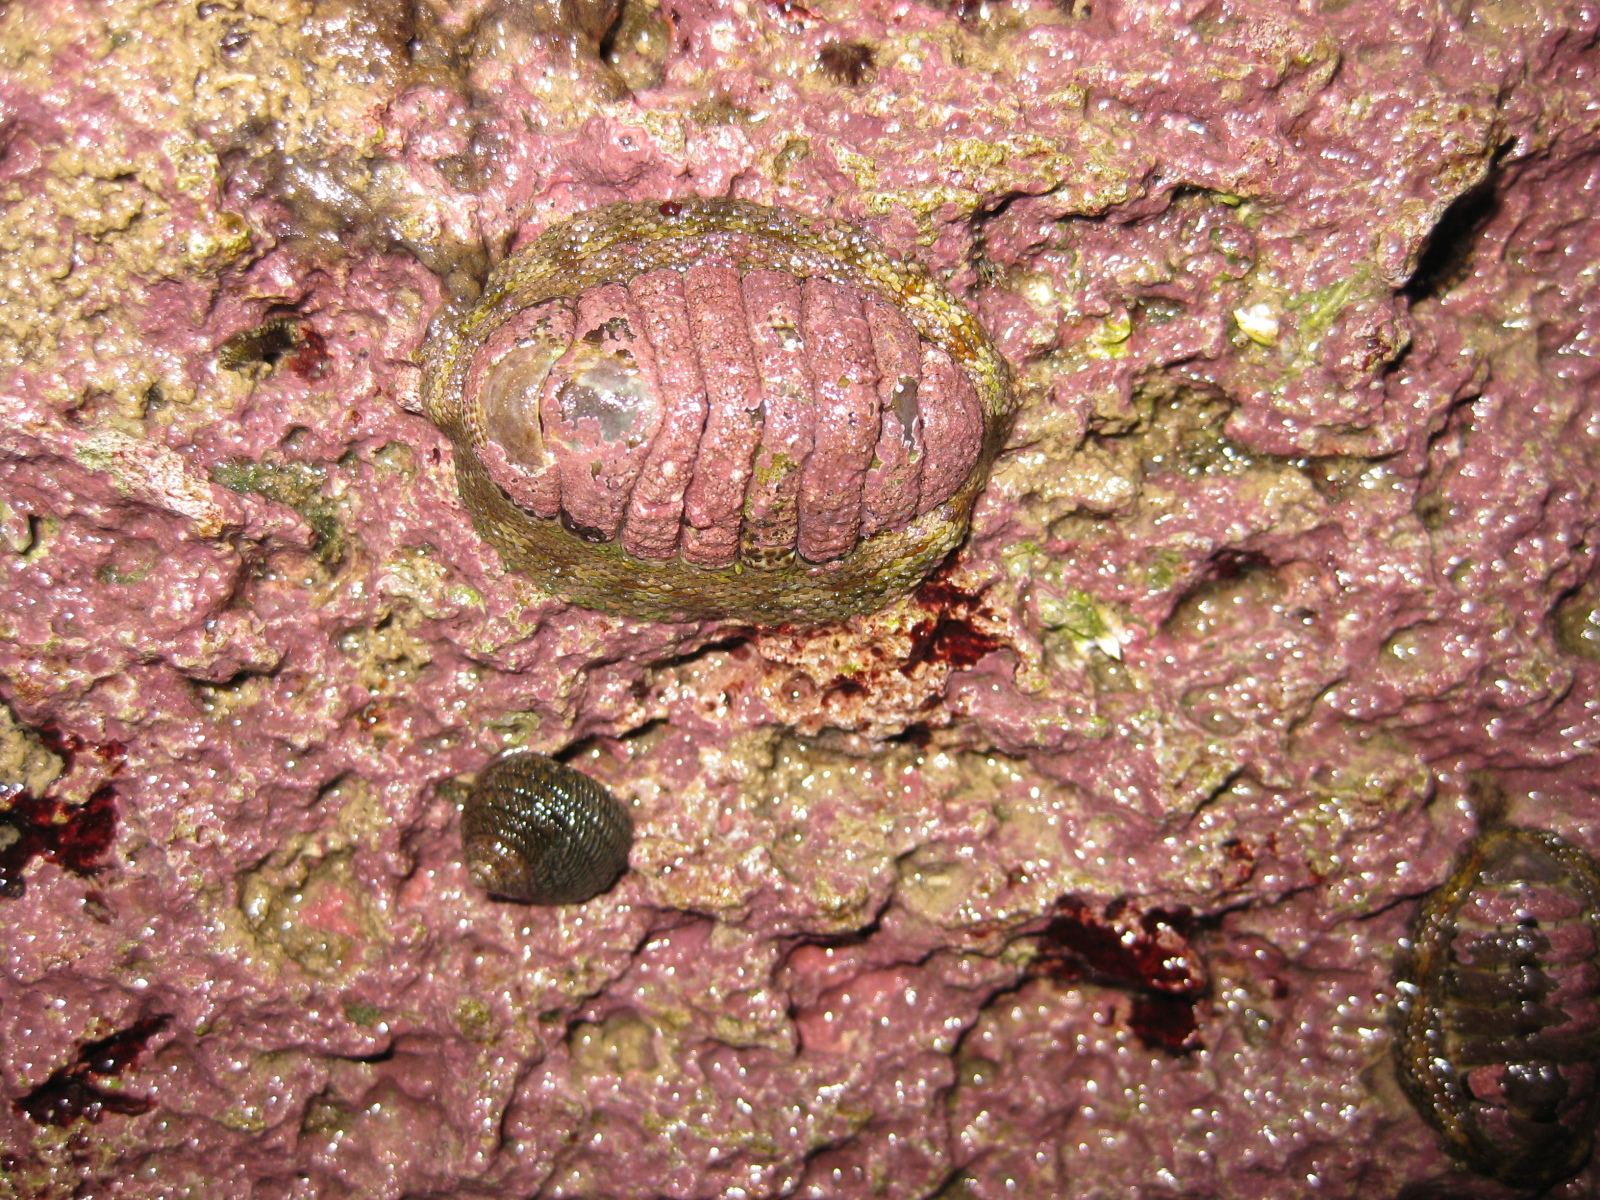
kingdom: Animalia
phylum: Mollusca
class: Polyplacophora
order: Chitonida
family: Chitonidae
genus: Sypharochiton
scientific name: Sypharochiton pelliserpentis
